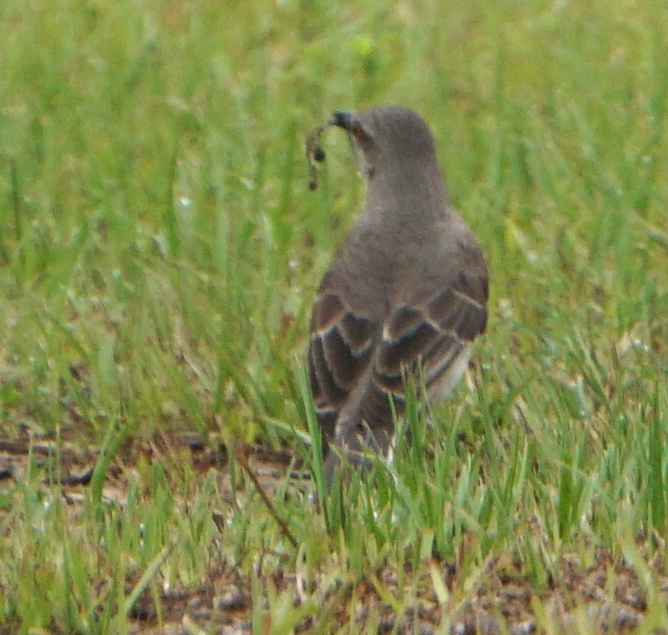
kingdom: Animalia
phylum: Chordata
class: Aves
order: Passeriformes
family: Mimidae
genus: Mimus
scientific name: Mimus polyglottos
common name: Northern mockingbird
